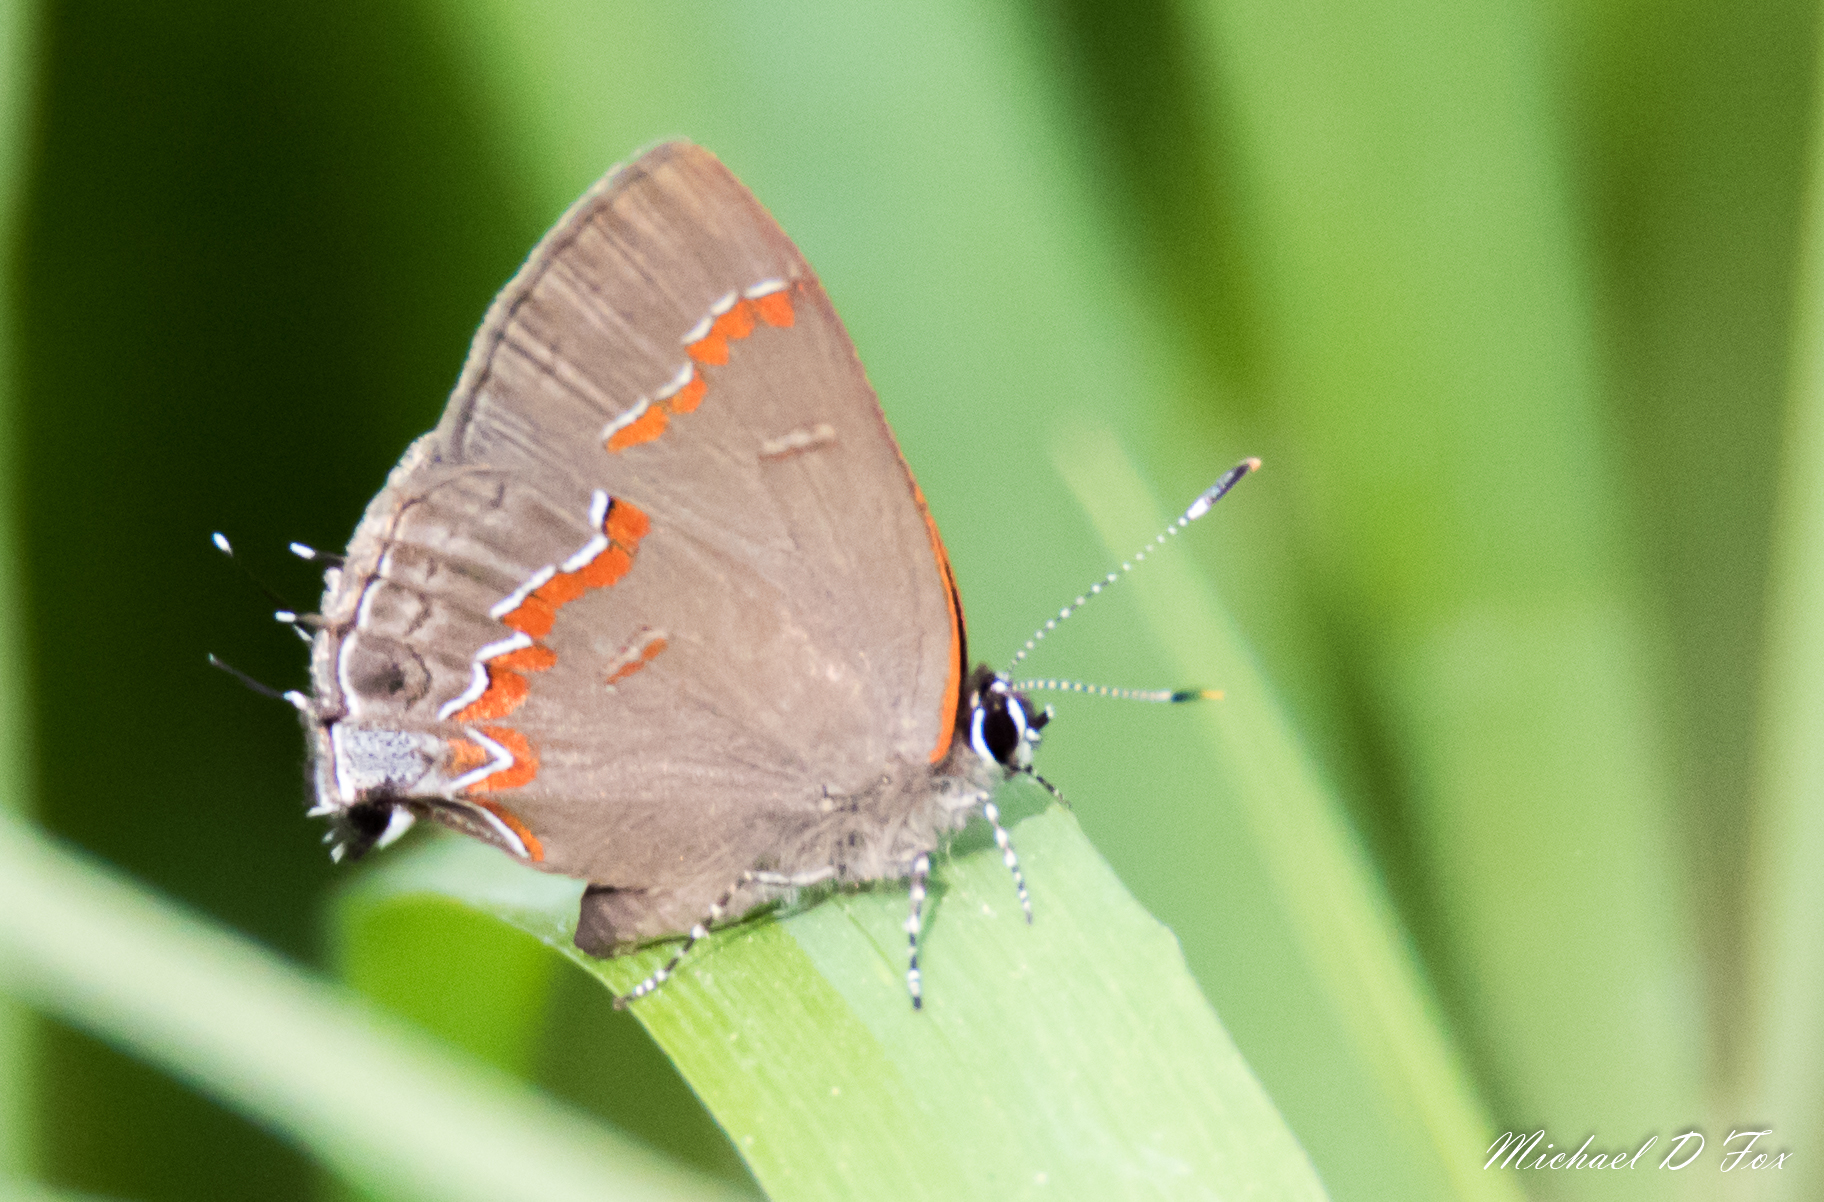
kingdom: Animalia
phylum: Arthropoda
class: Insecta
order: Lepidoptera
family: Lycaenidae
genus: Calycopis
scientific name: Calycopis cecrops
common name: Red-banded hairstreak
